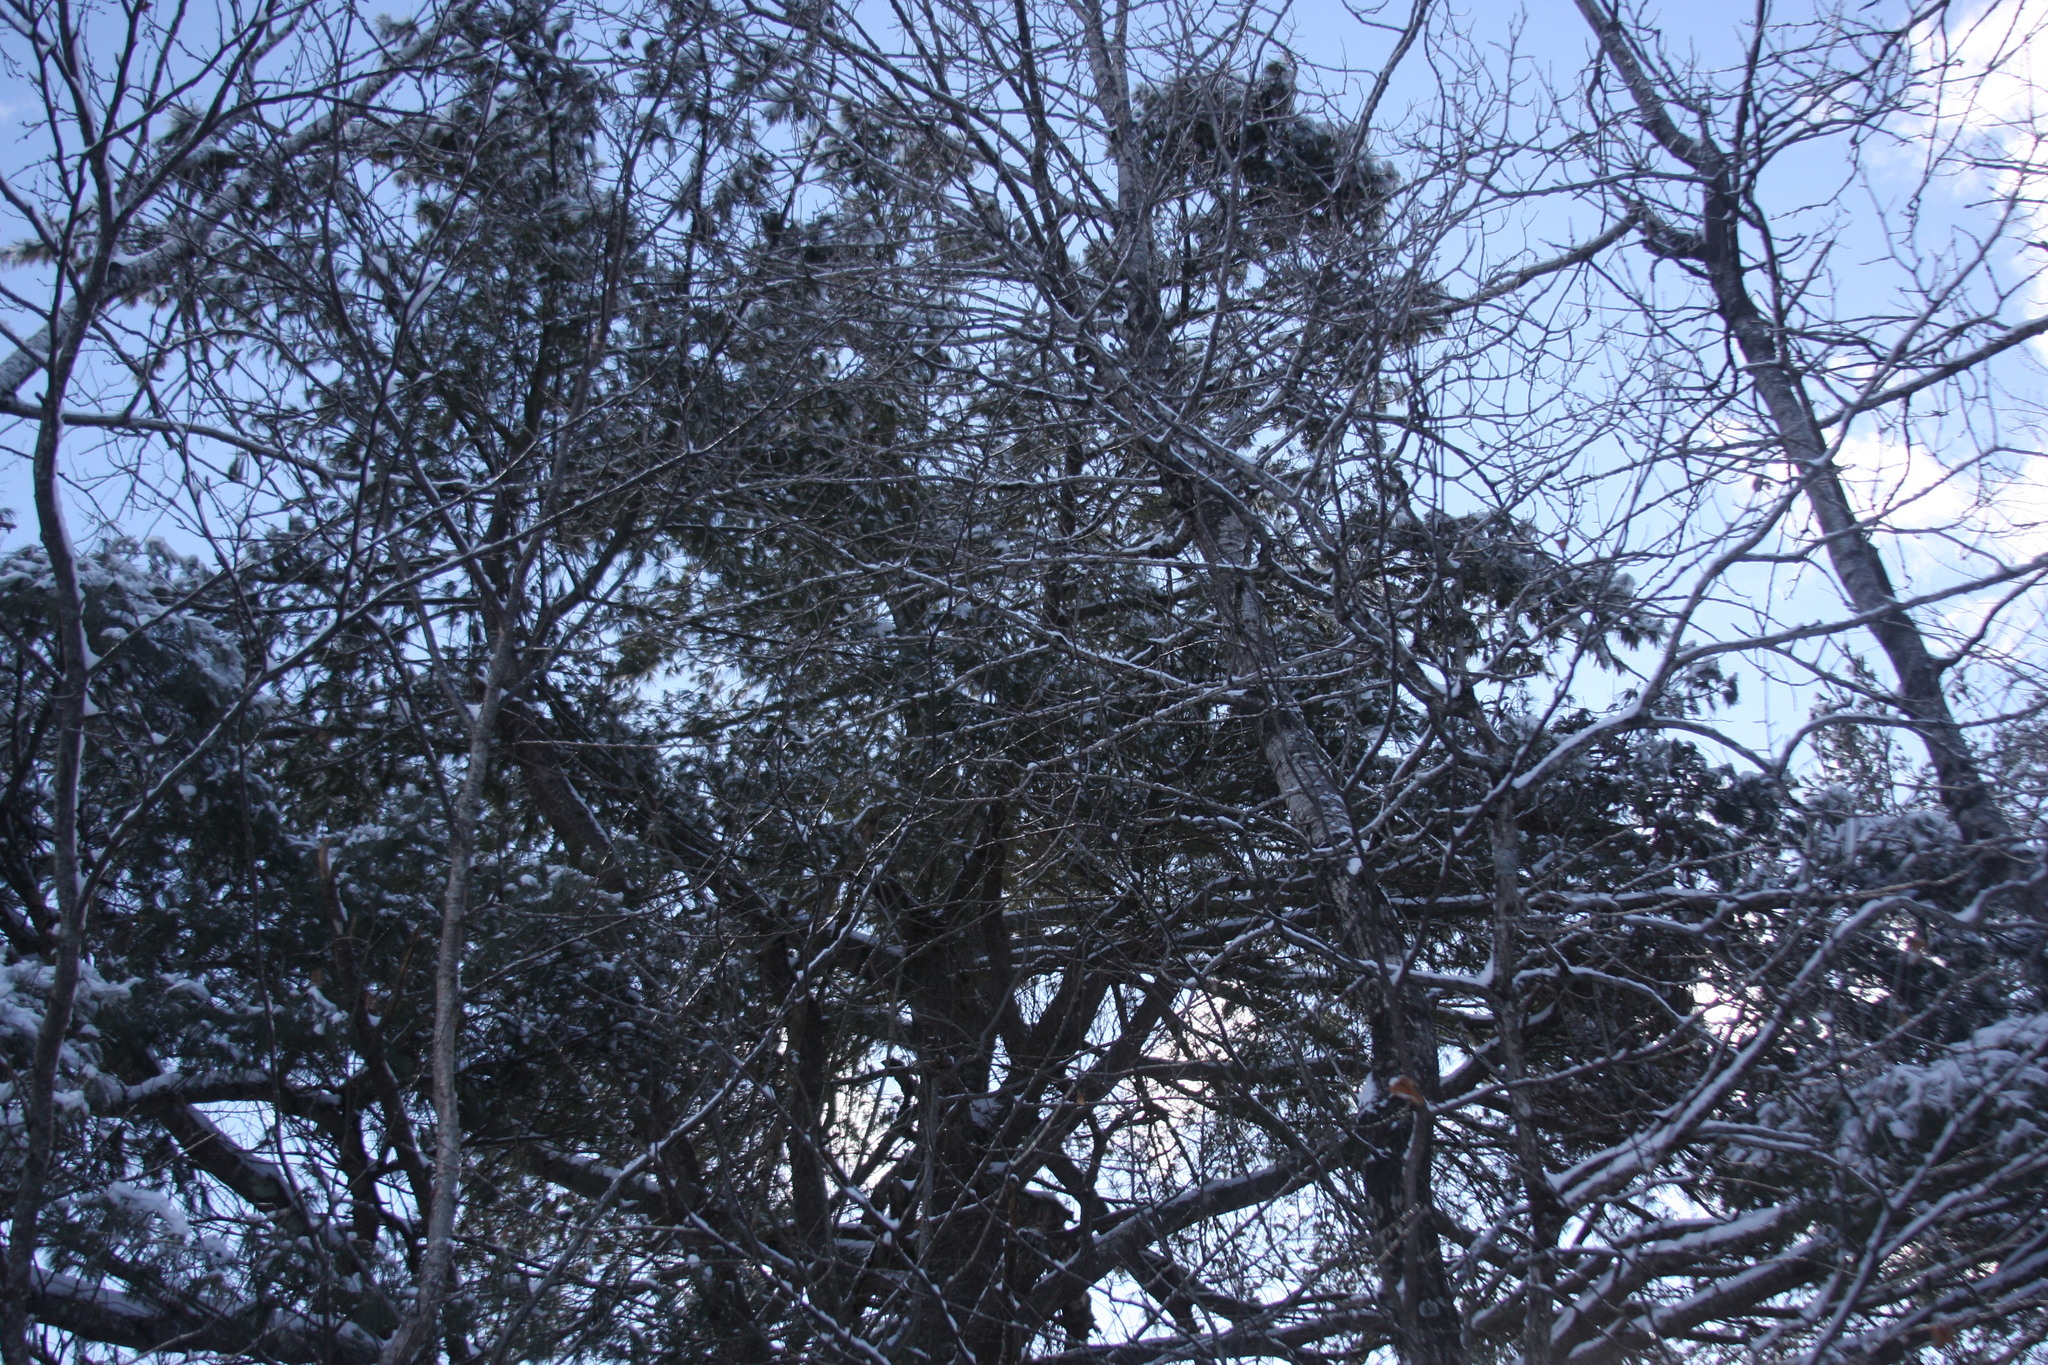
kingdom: Plantae
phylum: Tracheophyta
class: Pinopsida
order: Pinales
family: Pinaceae
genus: Pinus
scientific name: Pinus strobus
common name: Weymouth pine
